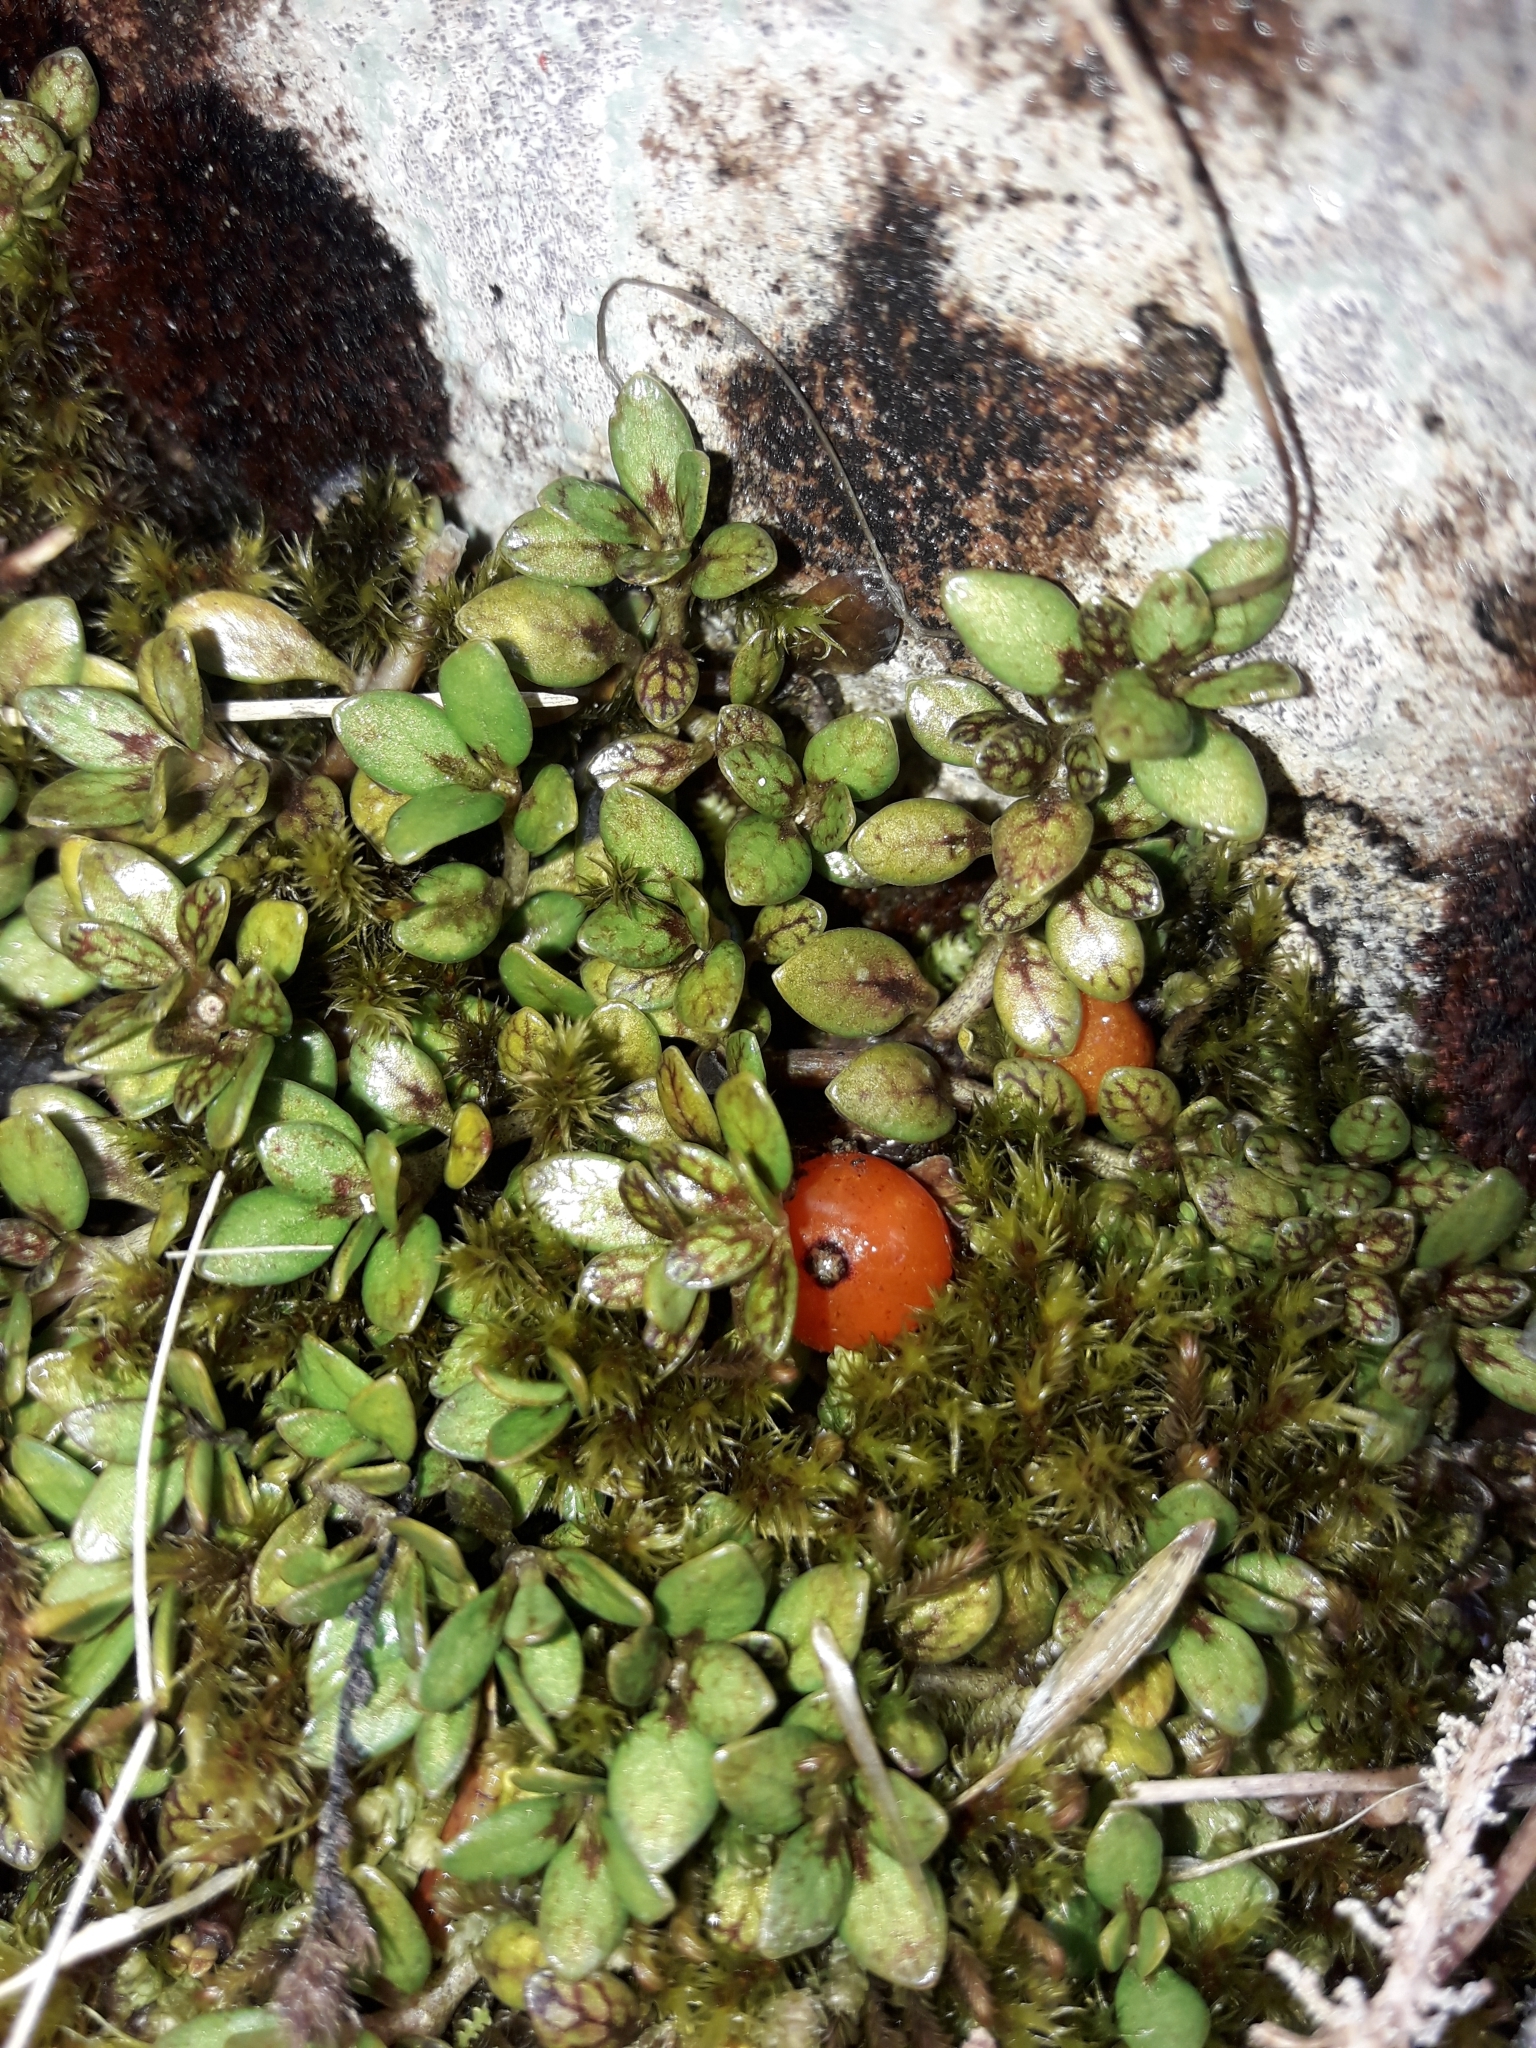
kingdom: Plantae
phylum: Tracheophyta
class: Magnoliopsida
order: Gentianales
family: Rubiaceae
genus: Coprosma
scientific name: Coprosma perpusilla
